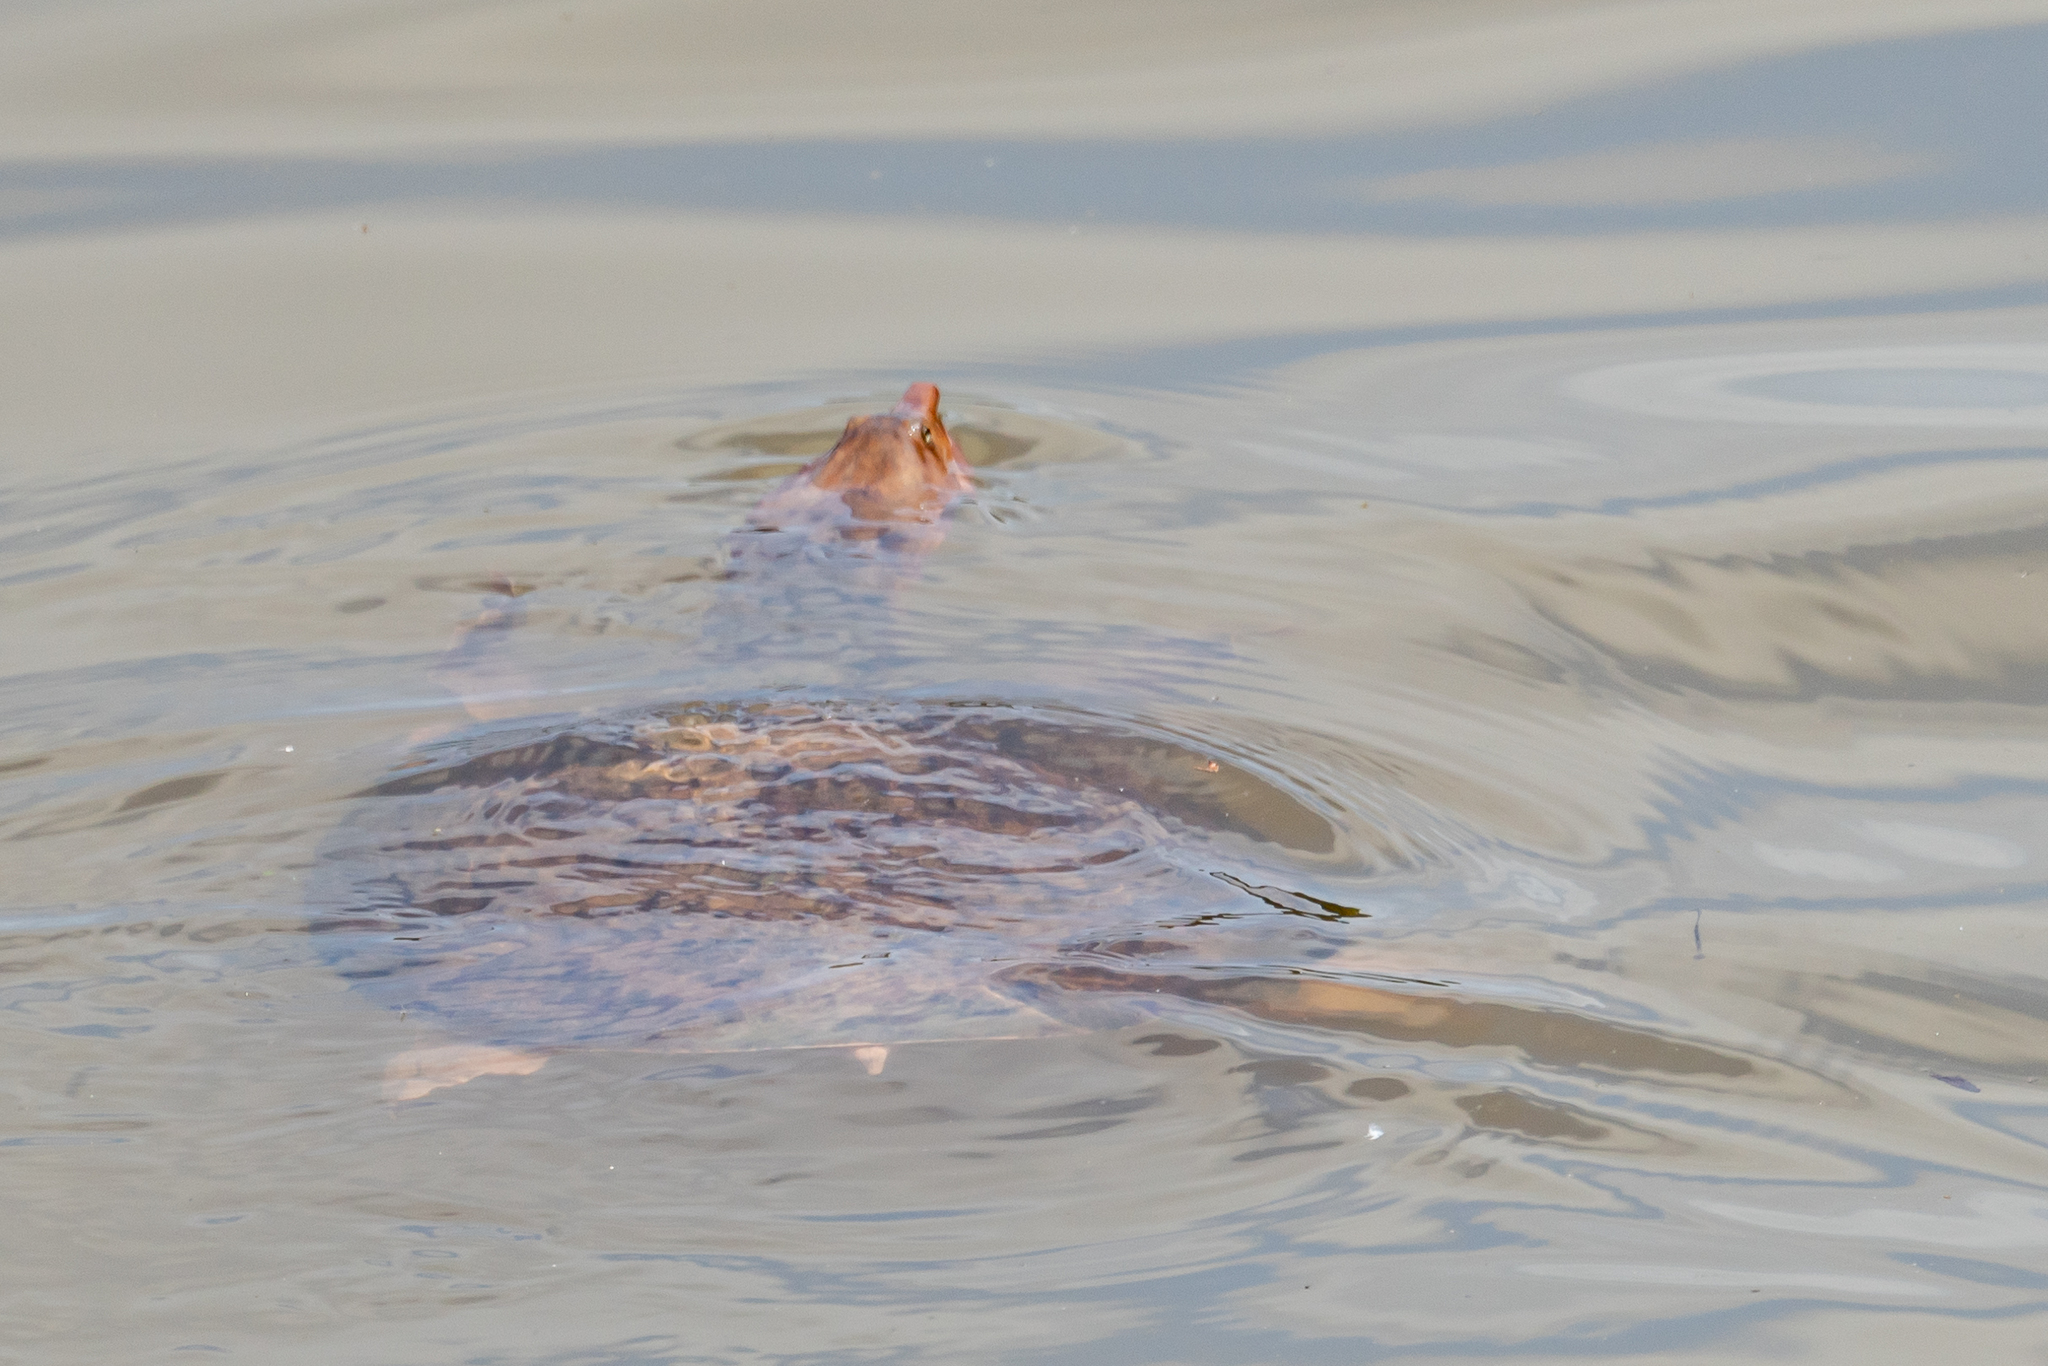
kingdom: Animalia
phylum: Chordata
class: Testudines
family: Trionychidae
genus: Apalone
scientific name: Apalone spinifera
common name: Spiny softshell turtle
